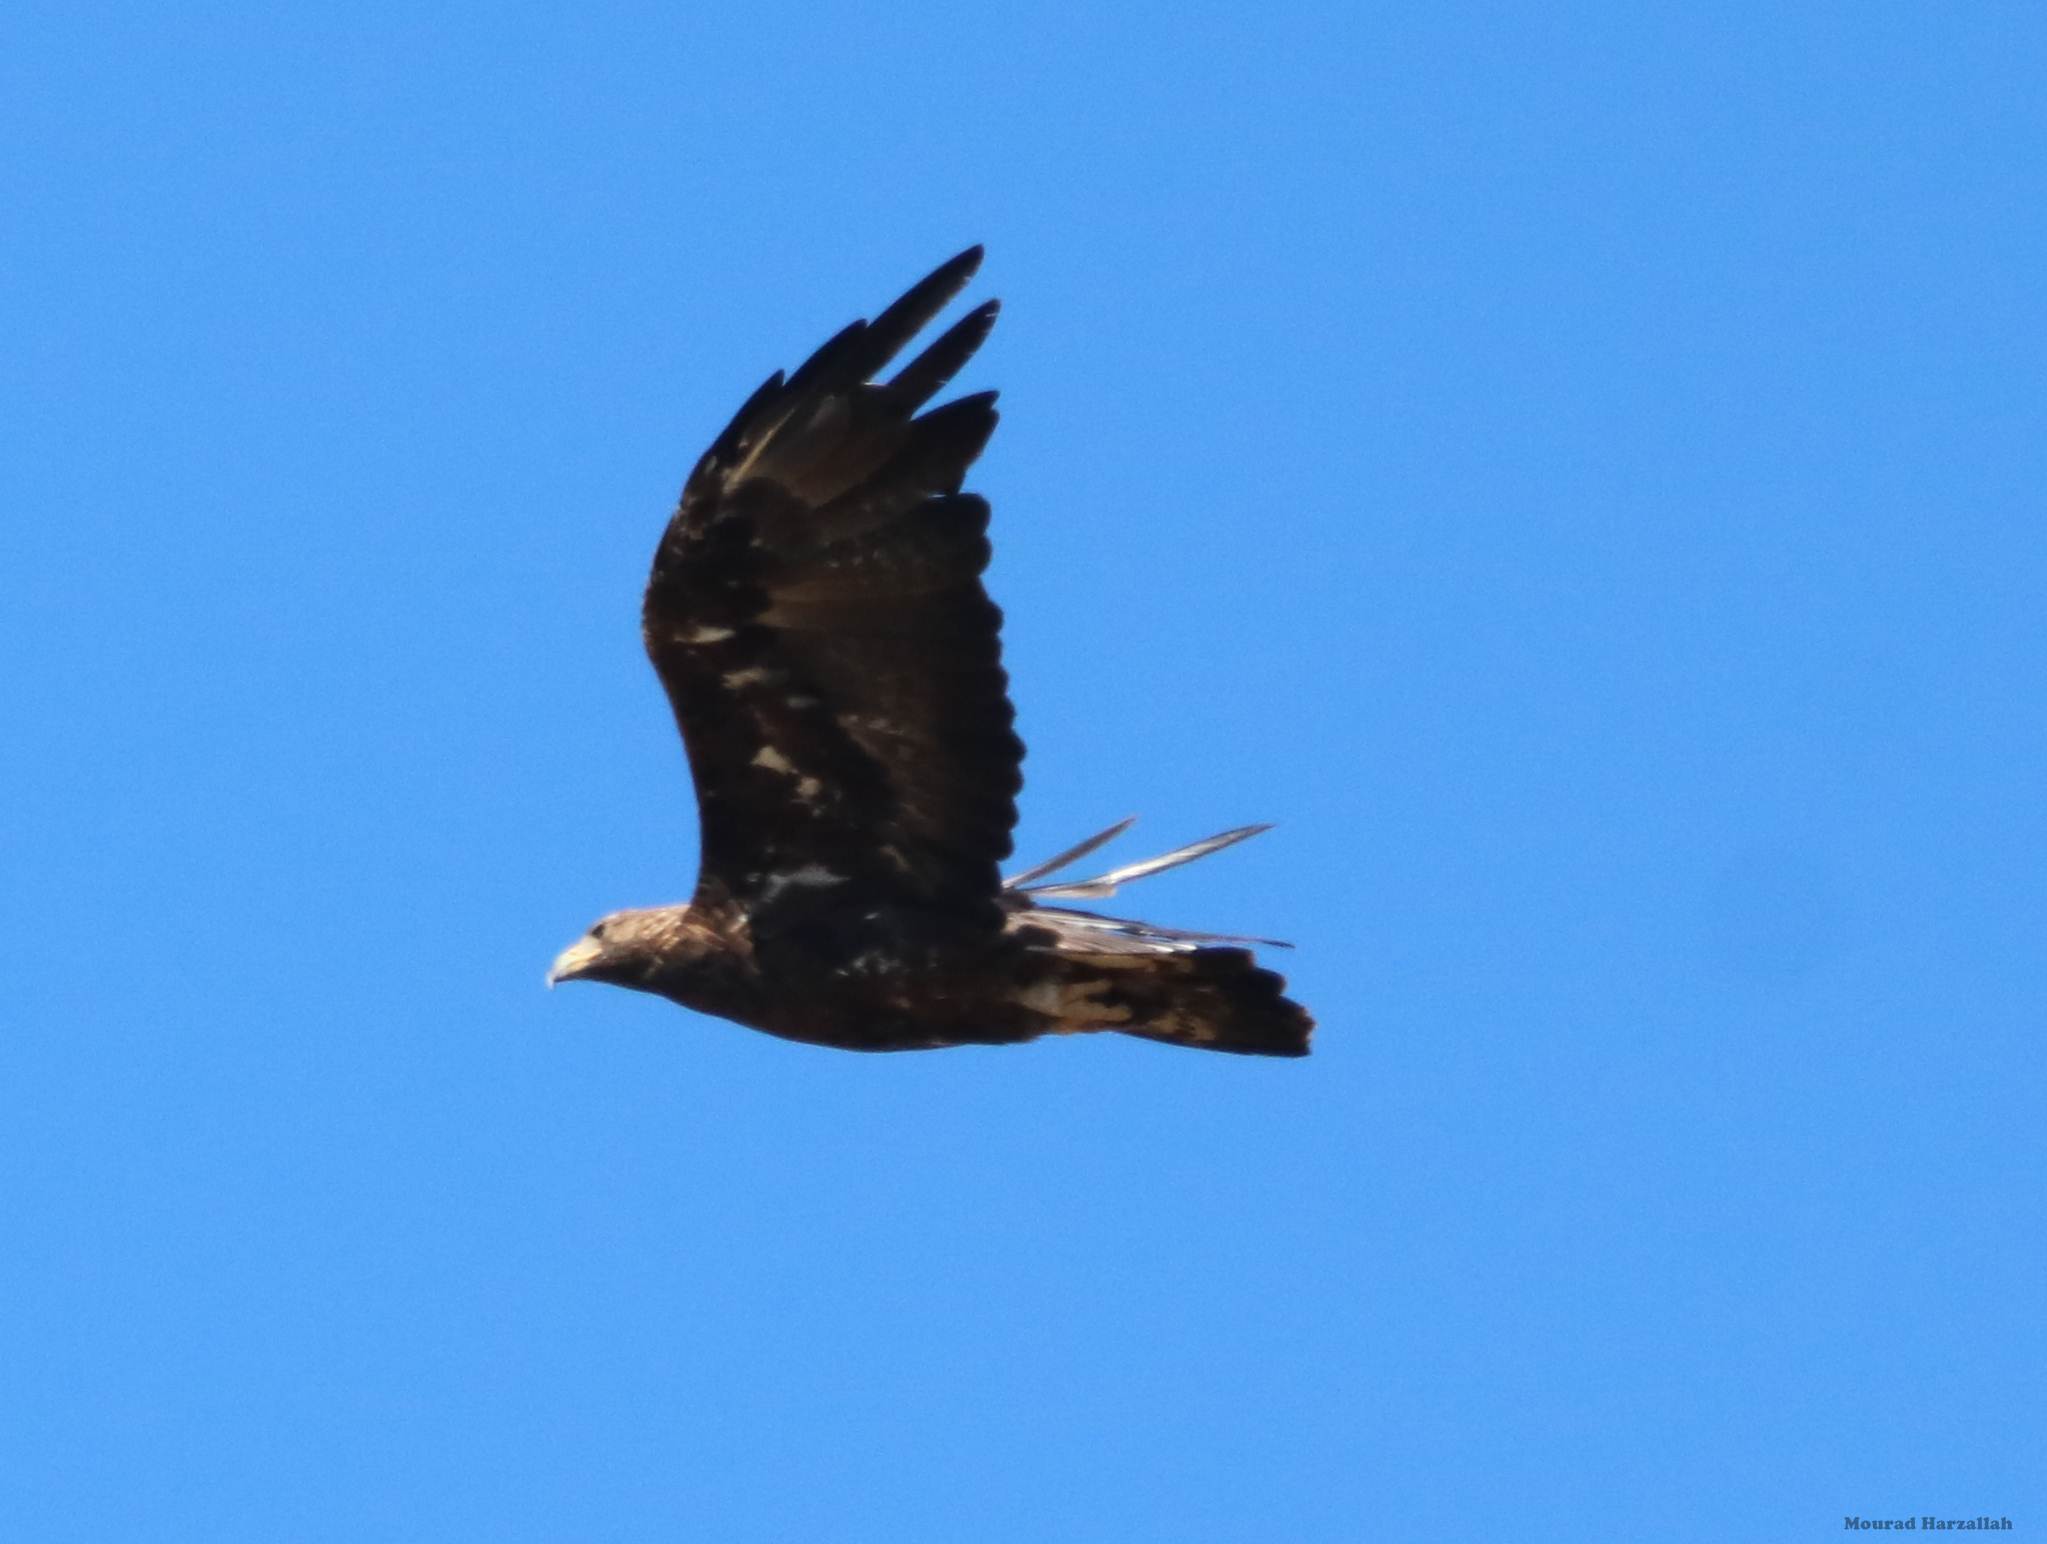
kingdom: Animalia
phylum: Chordata
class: Aves
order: Accipitriformes
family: Accipitridae
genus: Aquila
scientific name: Aquila chrysaetos
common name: Golden eagle
